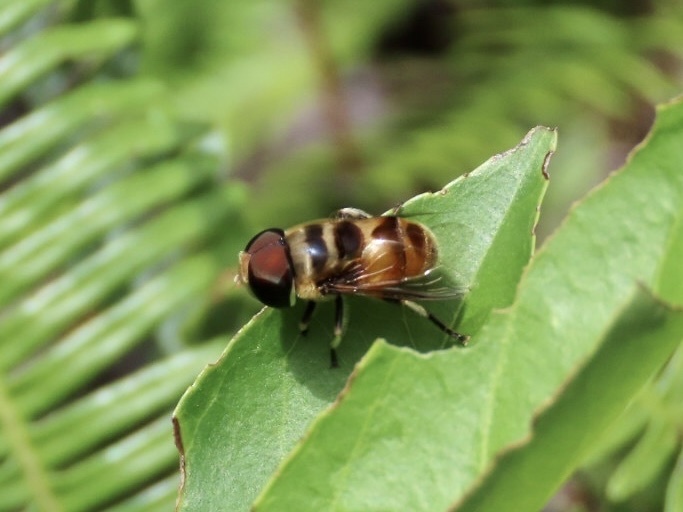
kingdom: Animalia
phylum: Arthropoda
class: Insecta
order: Diptera
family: Syrphidae
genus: Phytomia
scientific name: Phytomia errans
